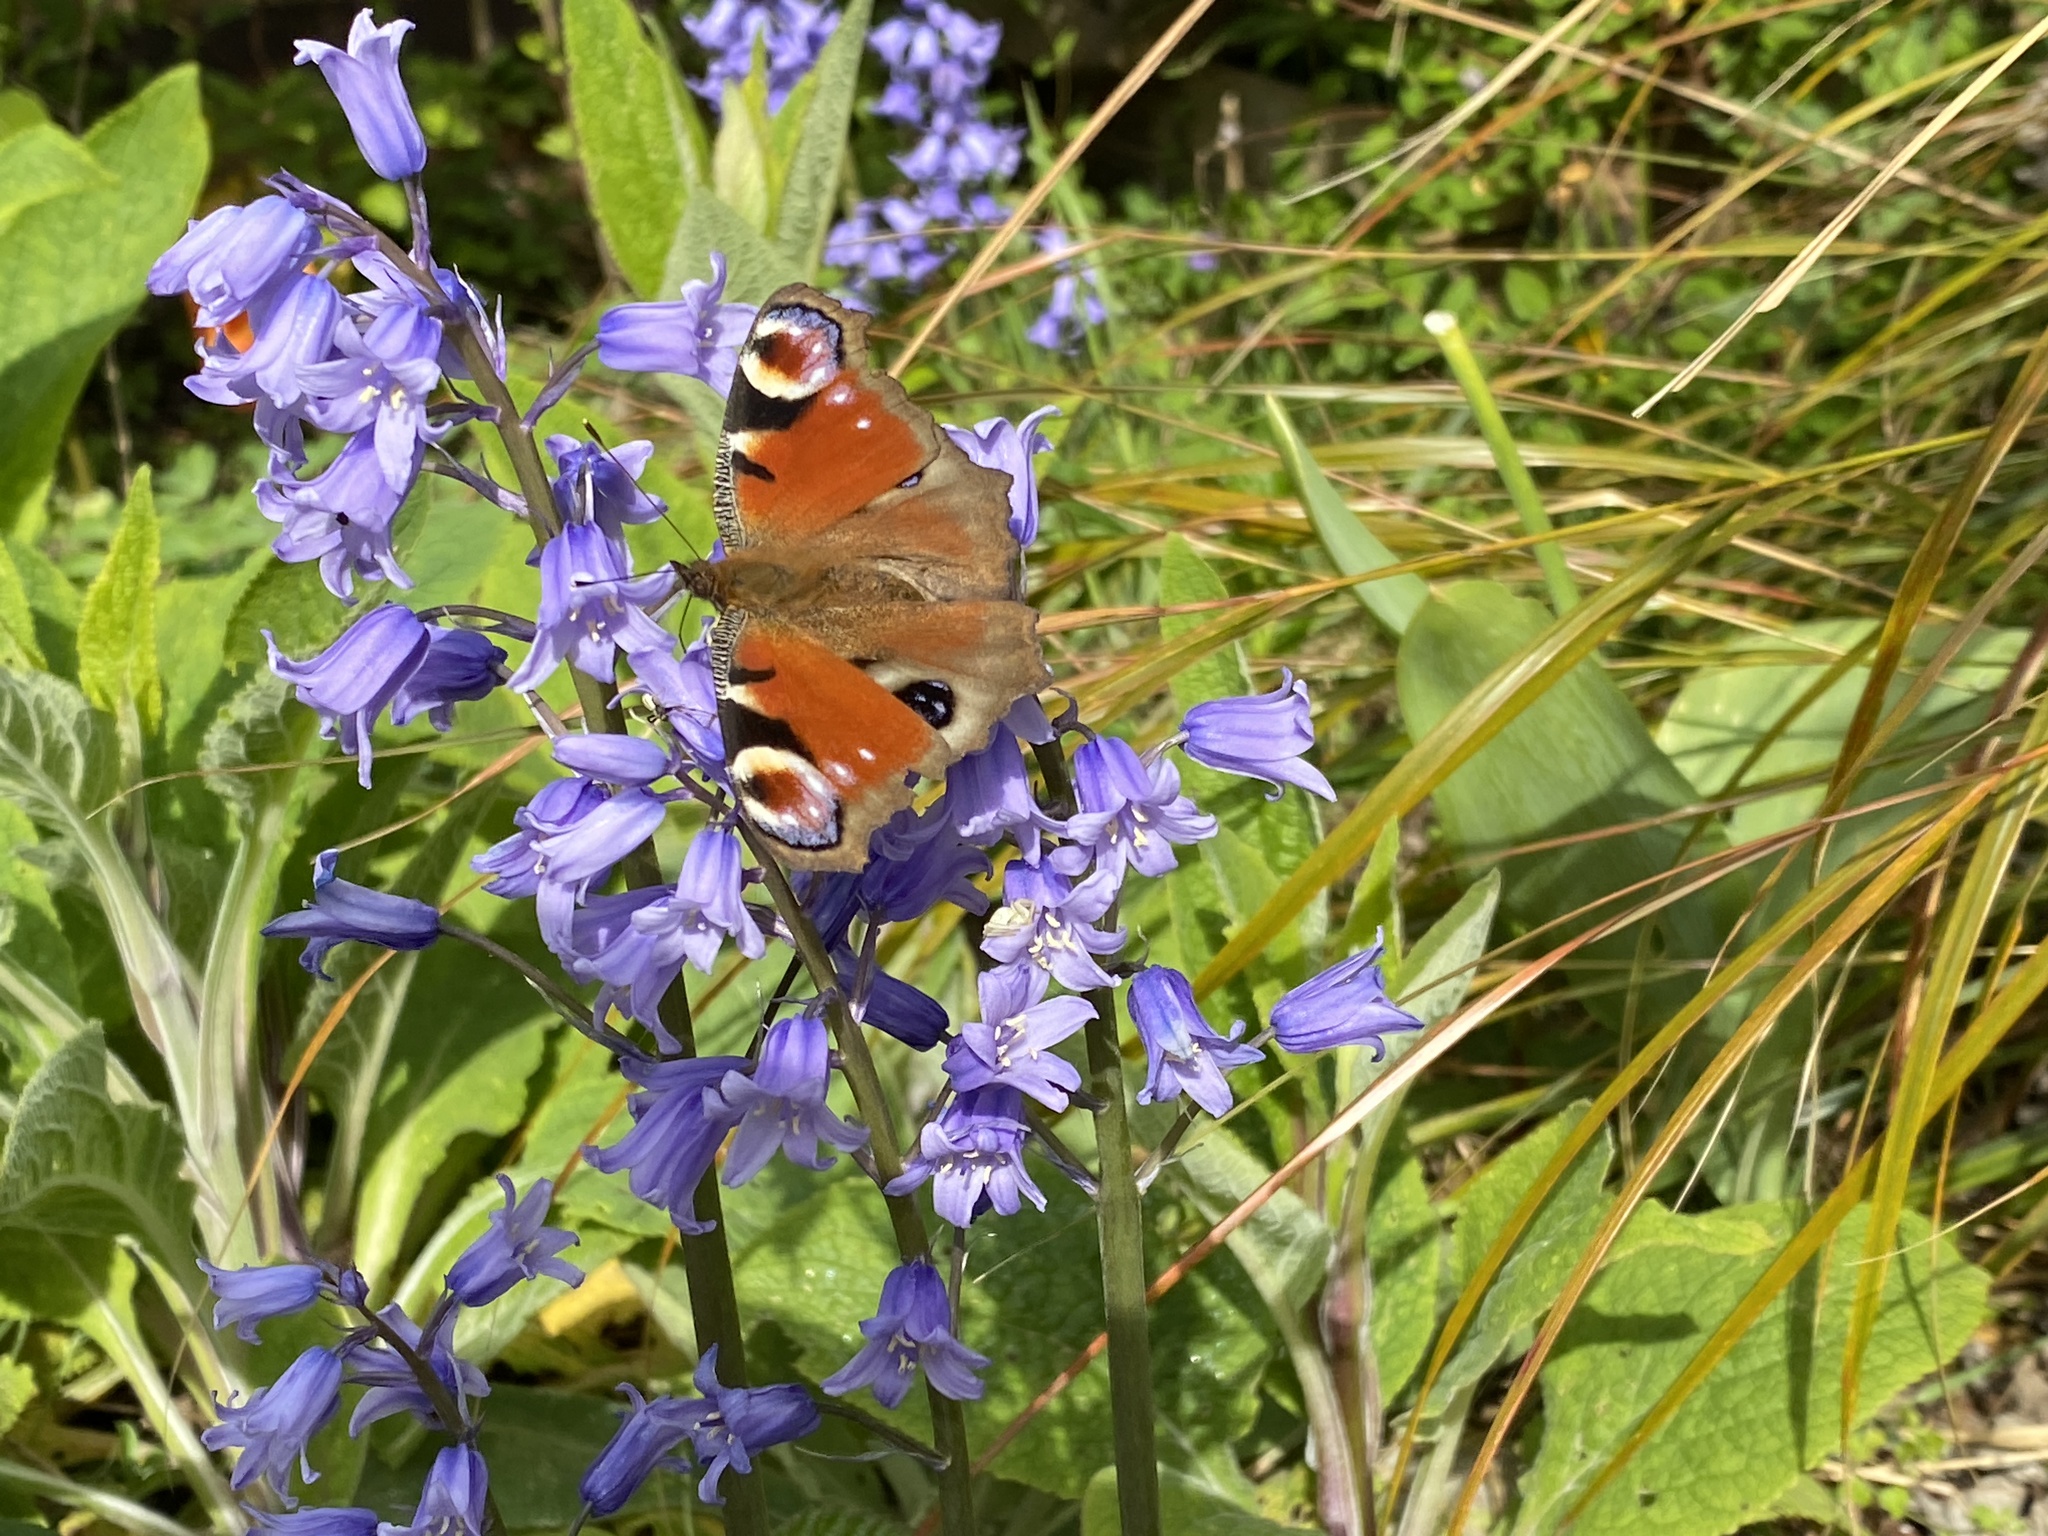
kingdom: Animalia
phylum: Arthropoda
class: Insecta
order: Lepidoptera
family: Nymphalidae
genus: Aglais
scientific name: Aglais io
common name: Peacock
